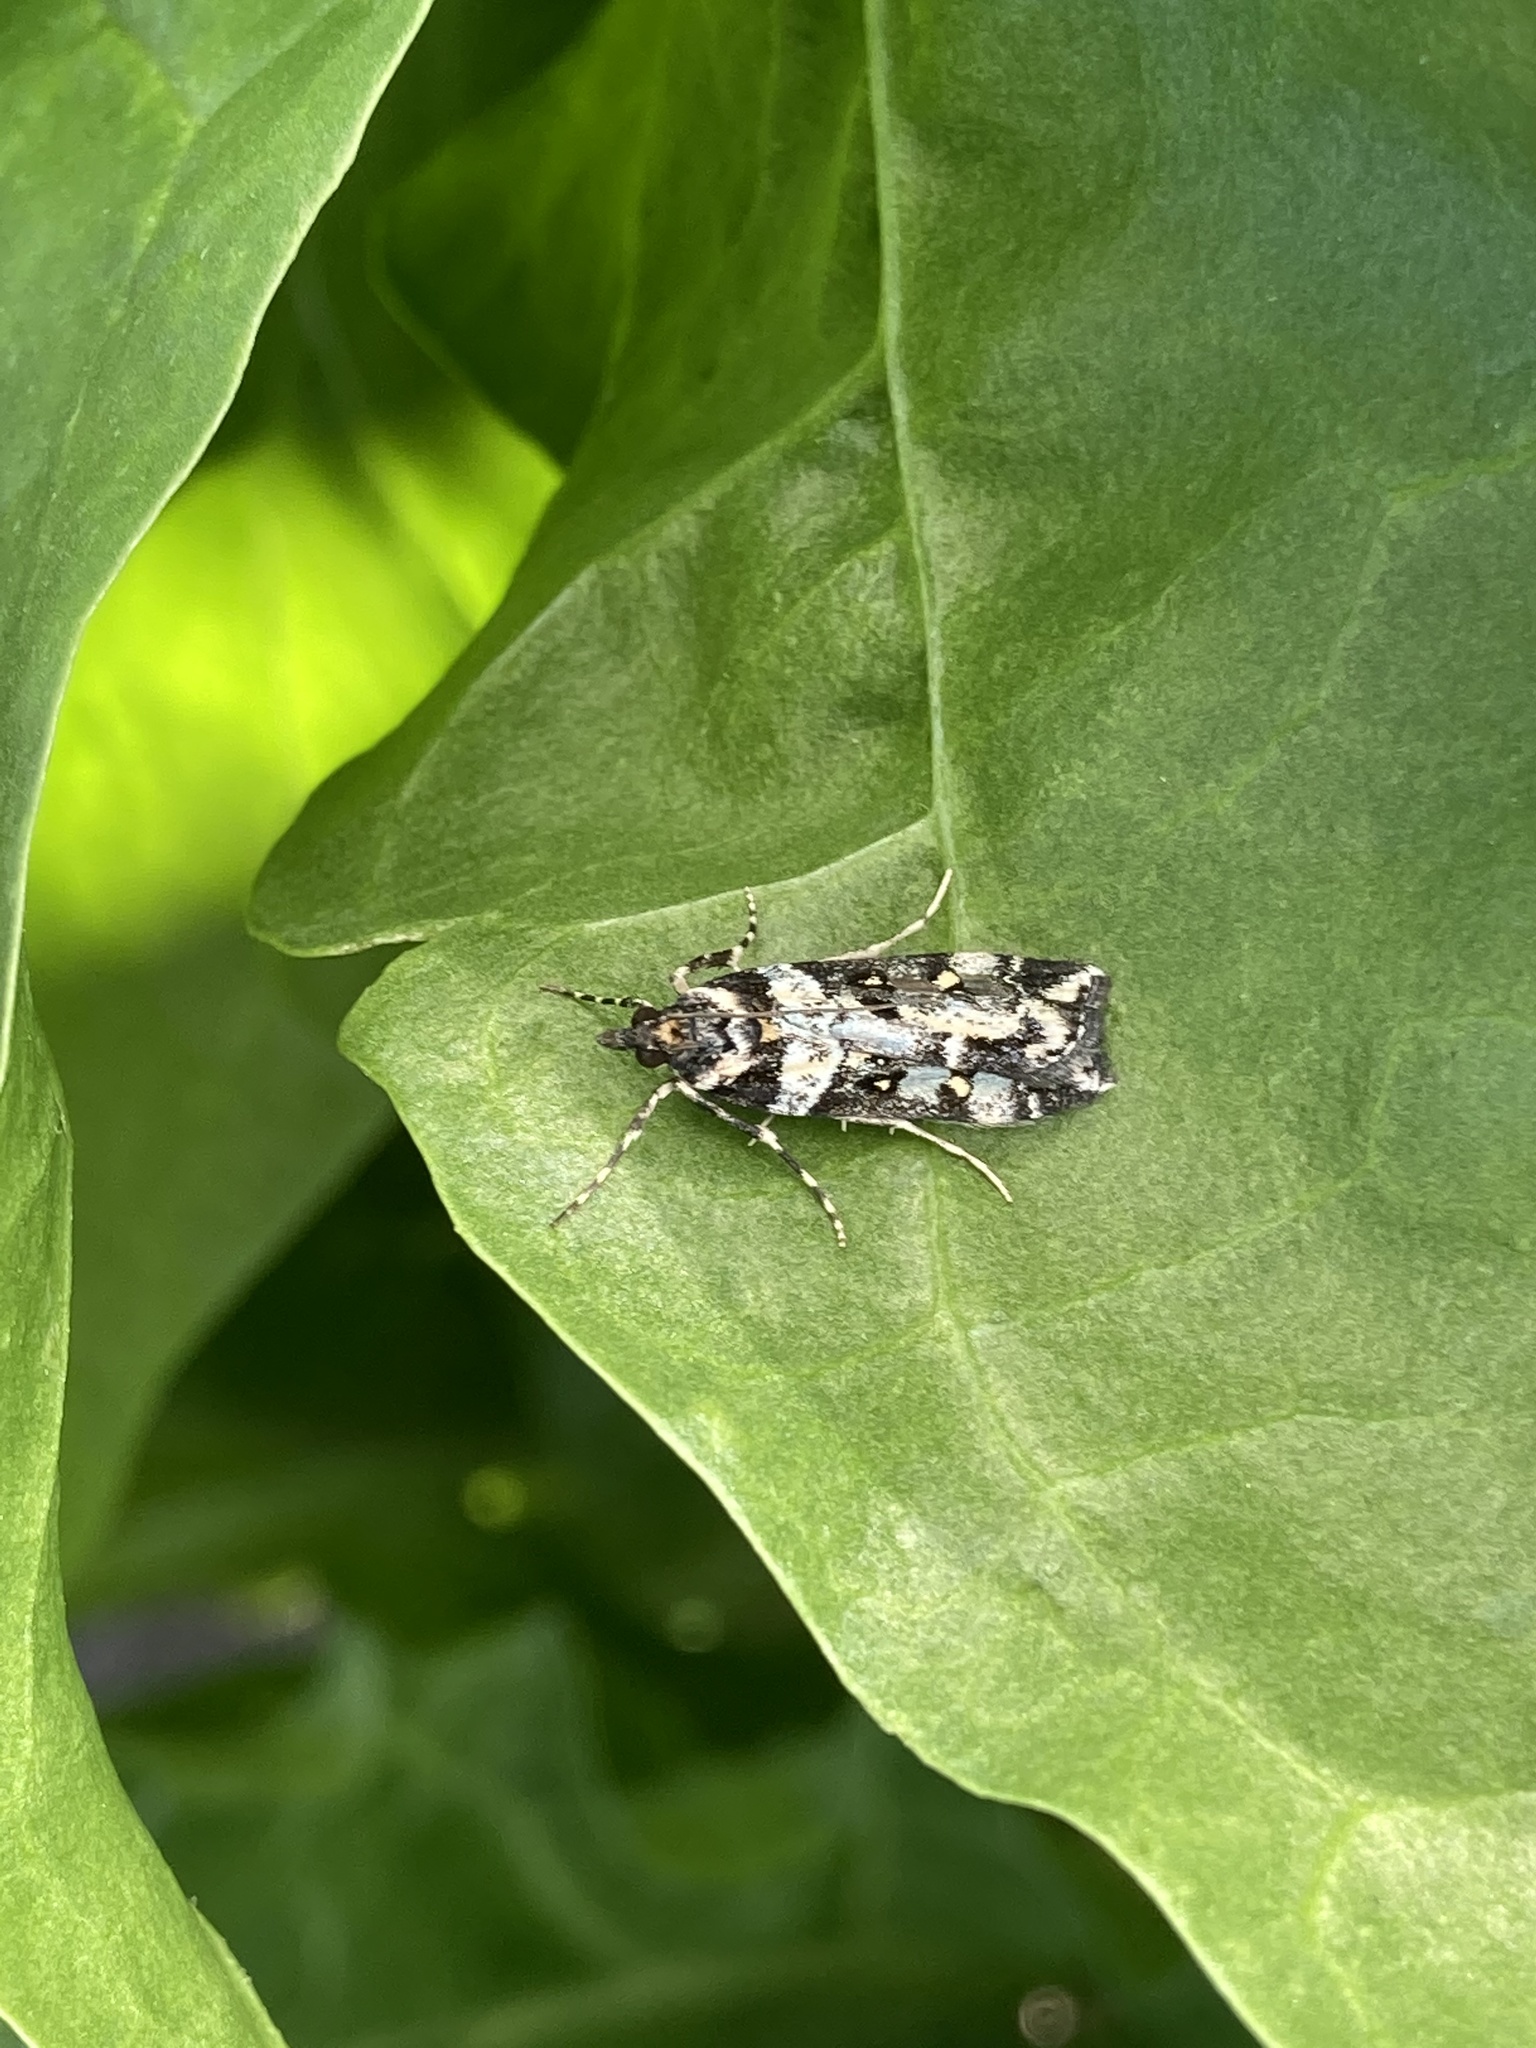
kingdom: Animalia
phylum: Arthropoda
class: Insecta
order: Lepidoptera
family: Crambidae
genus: Eudonia
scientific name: Eudonia diphtheralis
